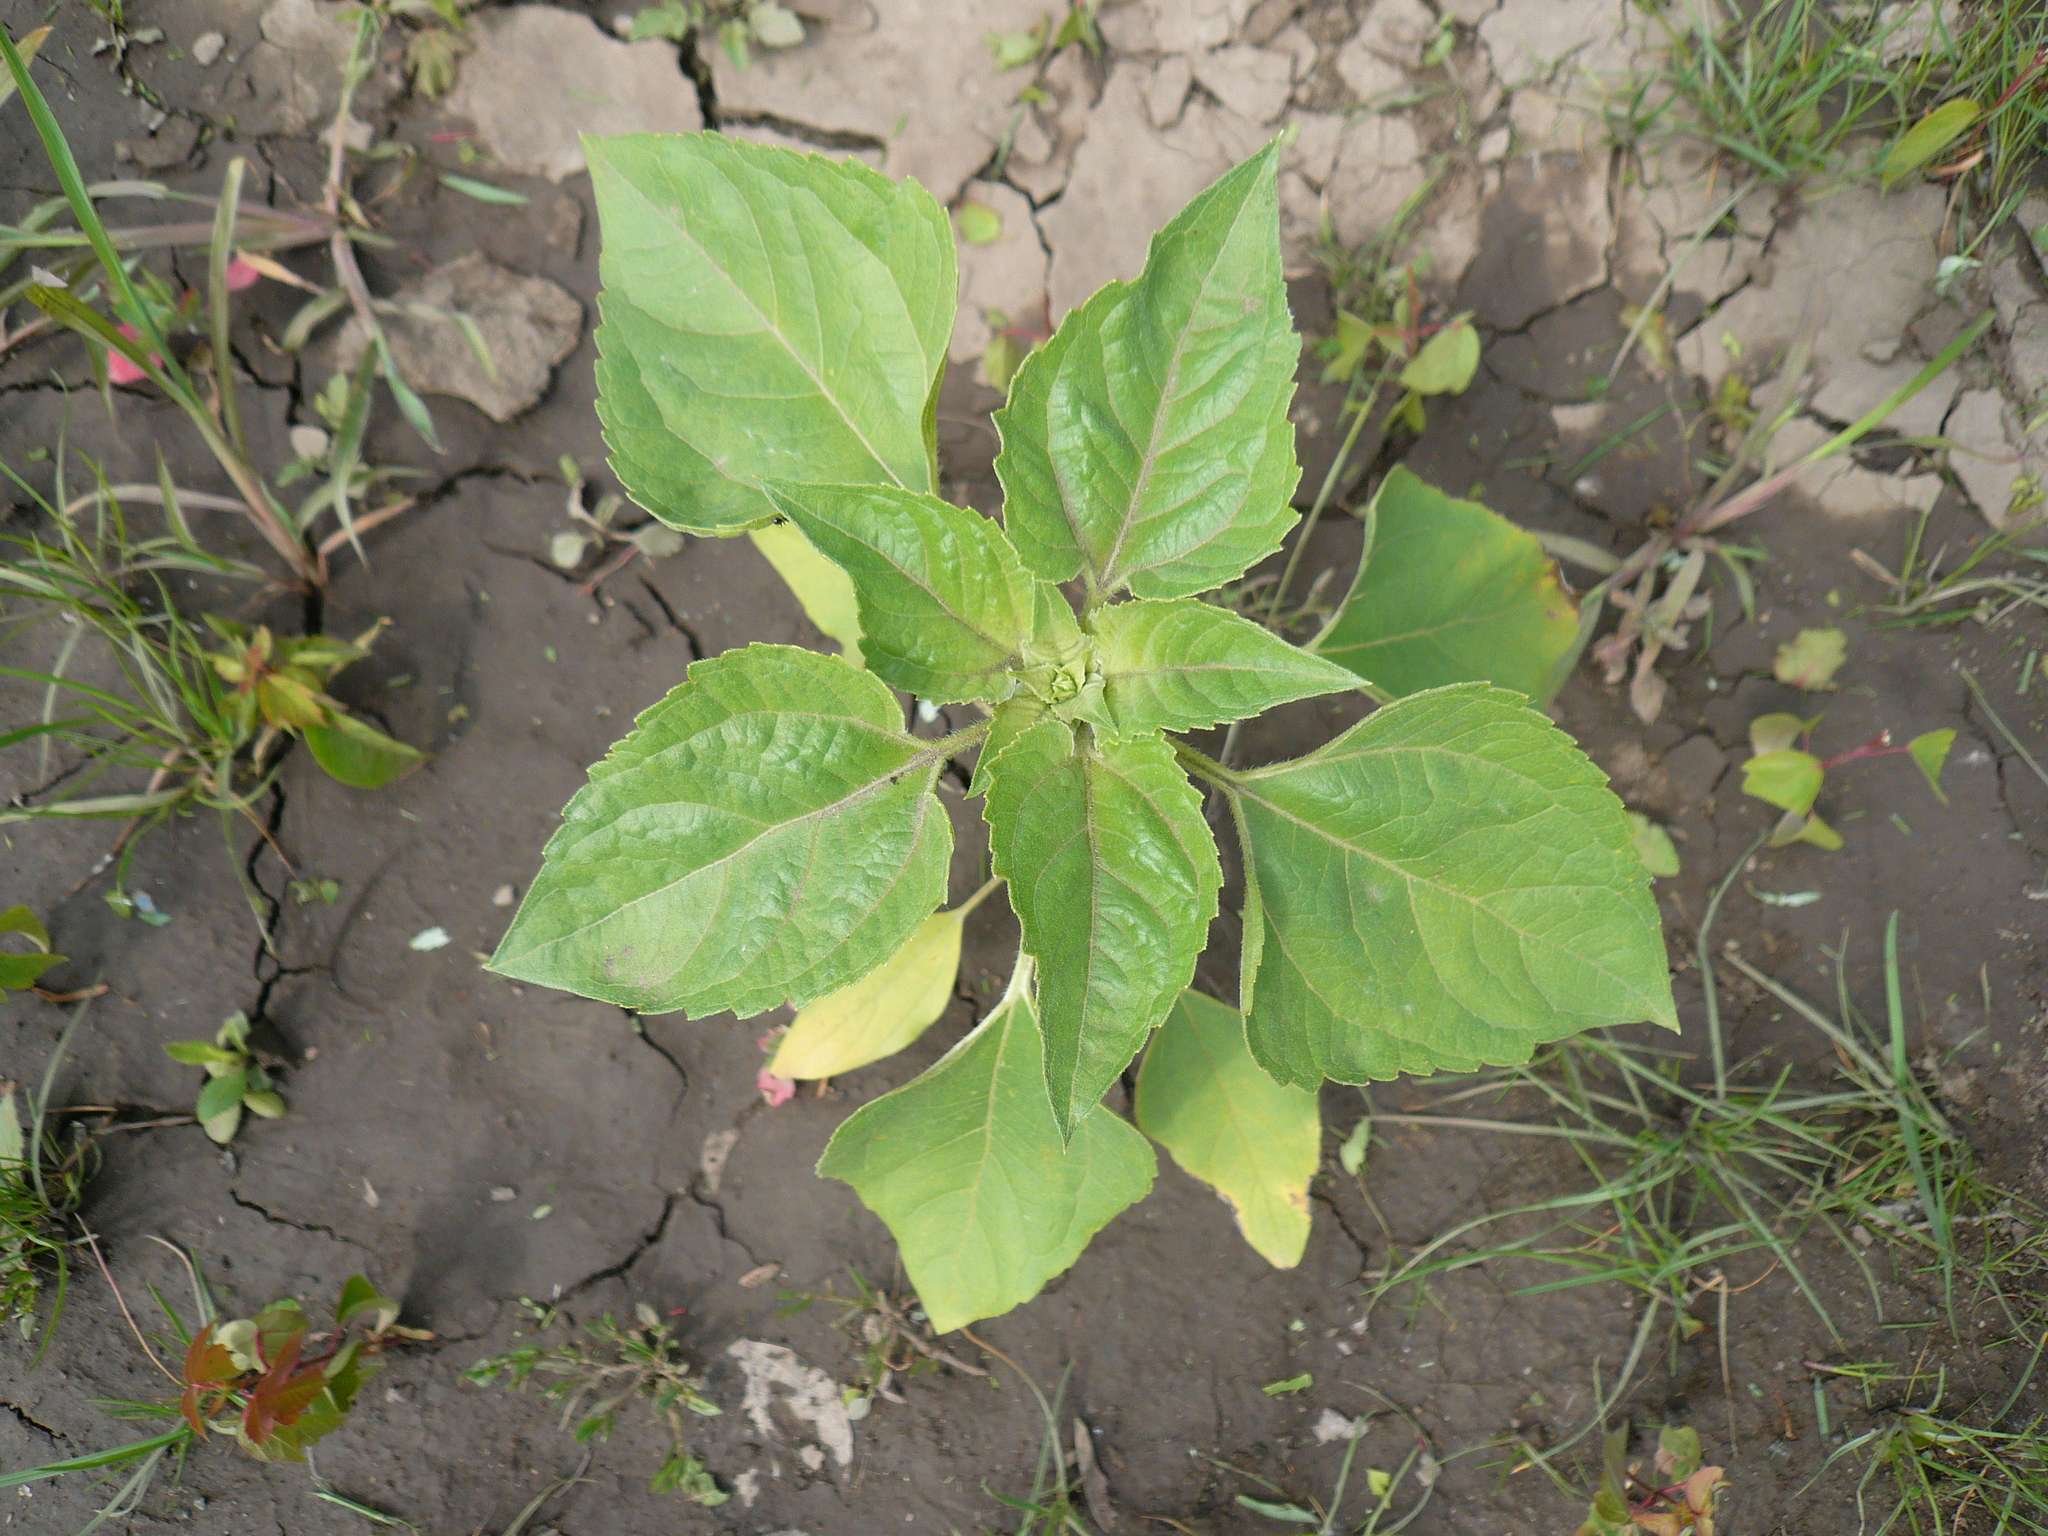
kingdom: Plantae
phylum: Tracheophyta
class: Magnoliopsida
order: Asterales
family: Asteraceae
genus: Helianthus
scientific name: Helianthus annuus
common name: Sunflower
